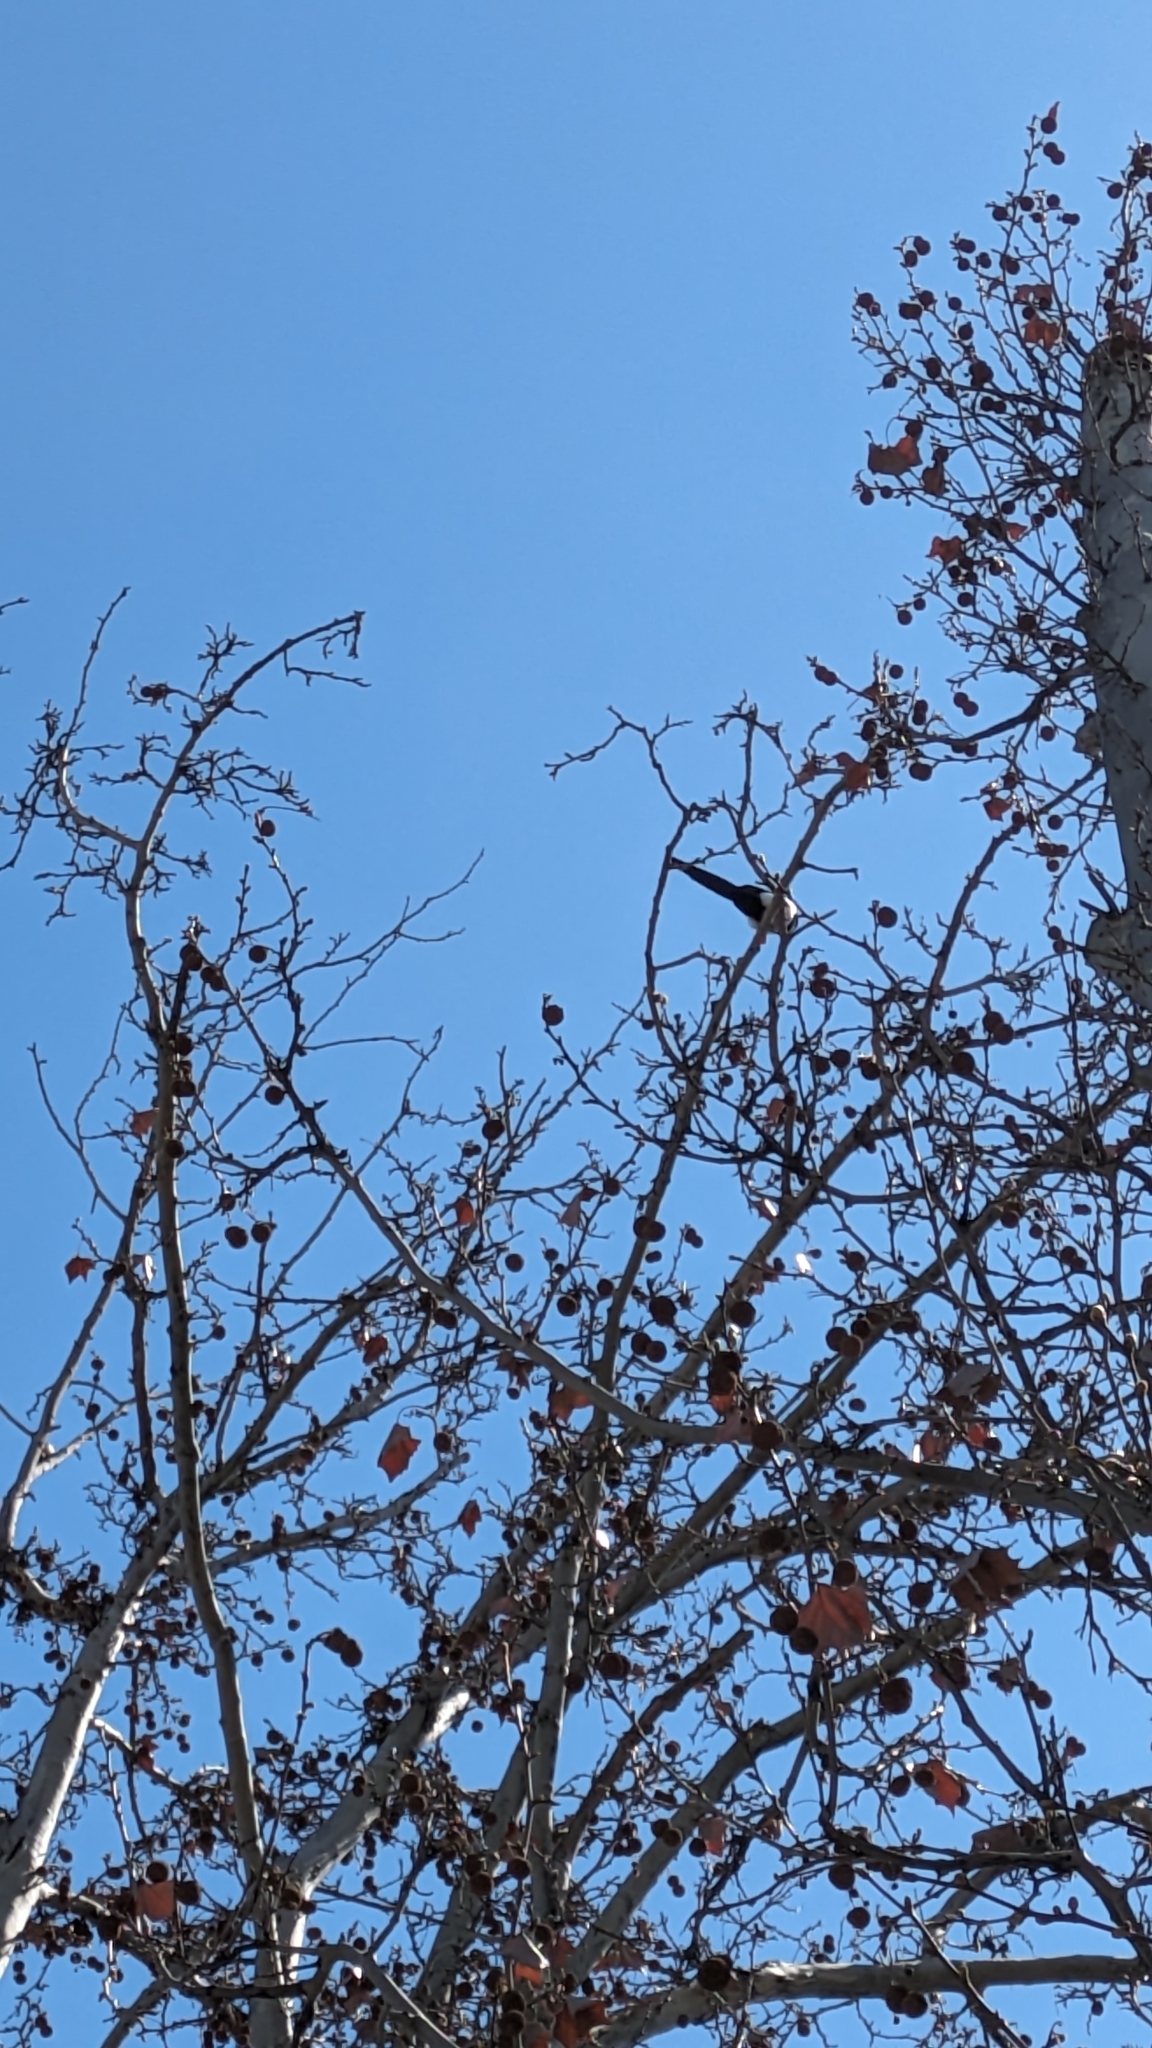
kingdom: Animalia
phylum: Chordata
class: Aves
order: Passeriformes
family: Corvidae
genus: Pica
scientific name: Pica pica
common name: Eurasian magpie
